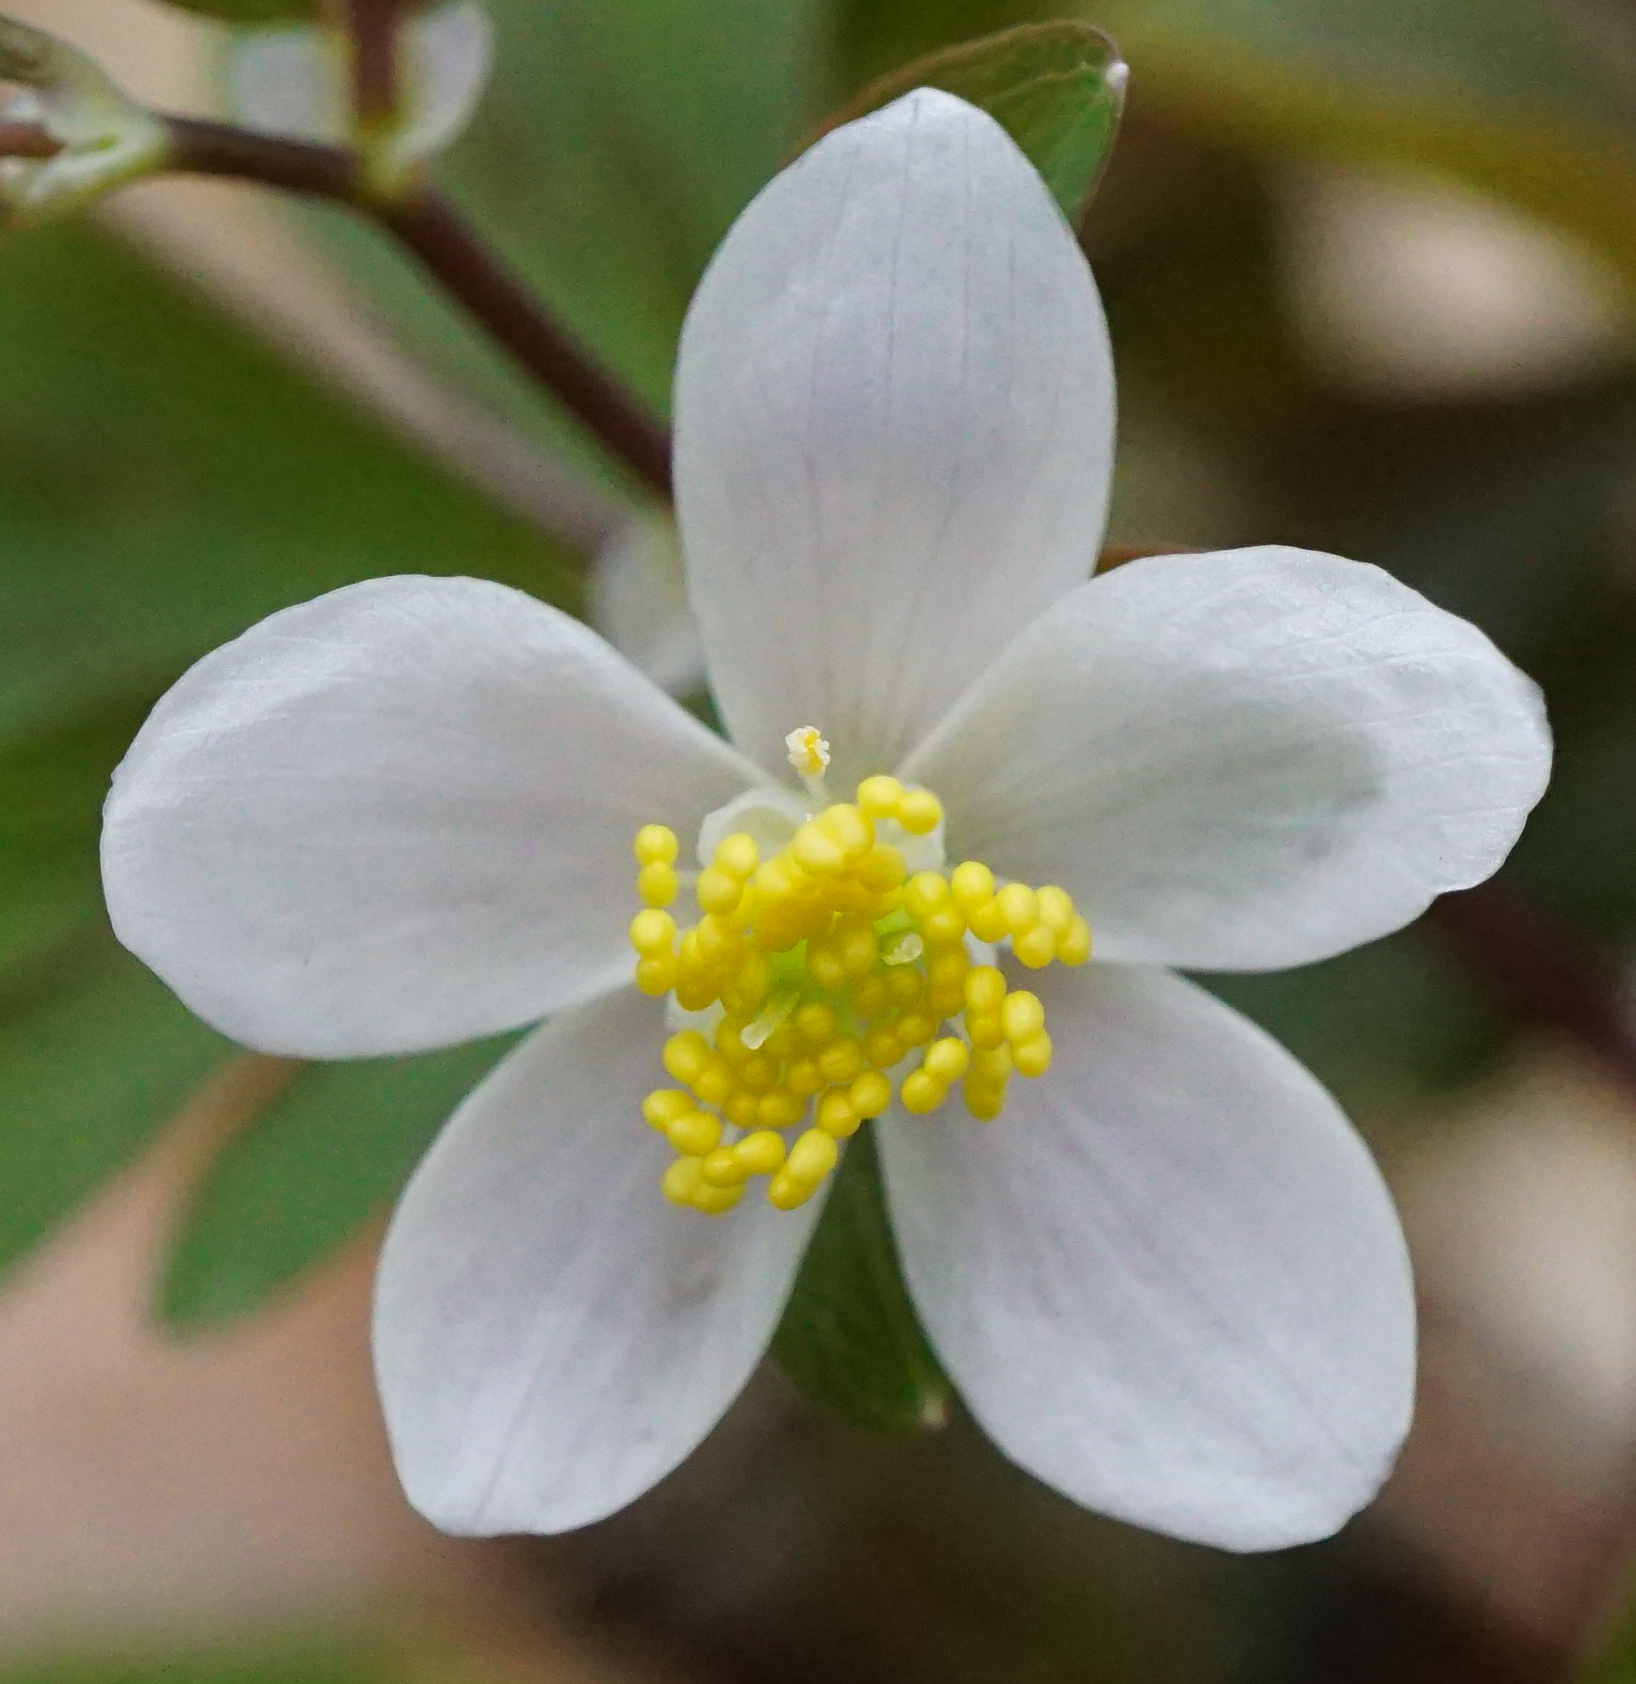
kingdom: Plantae
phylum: Tracheophyta
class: Magnoliopsida
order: Ranunculales
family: Ranunculaceae
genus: Isopyrum
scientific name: Isopyrum thalictroides
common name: Isopyrum
